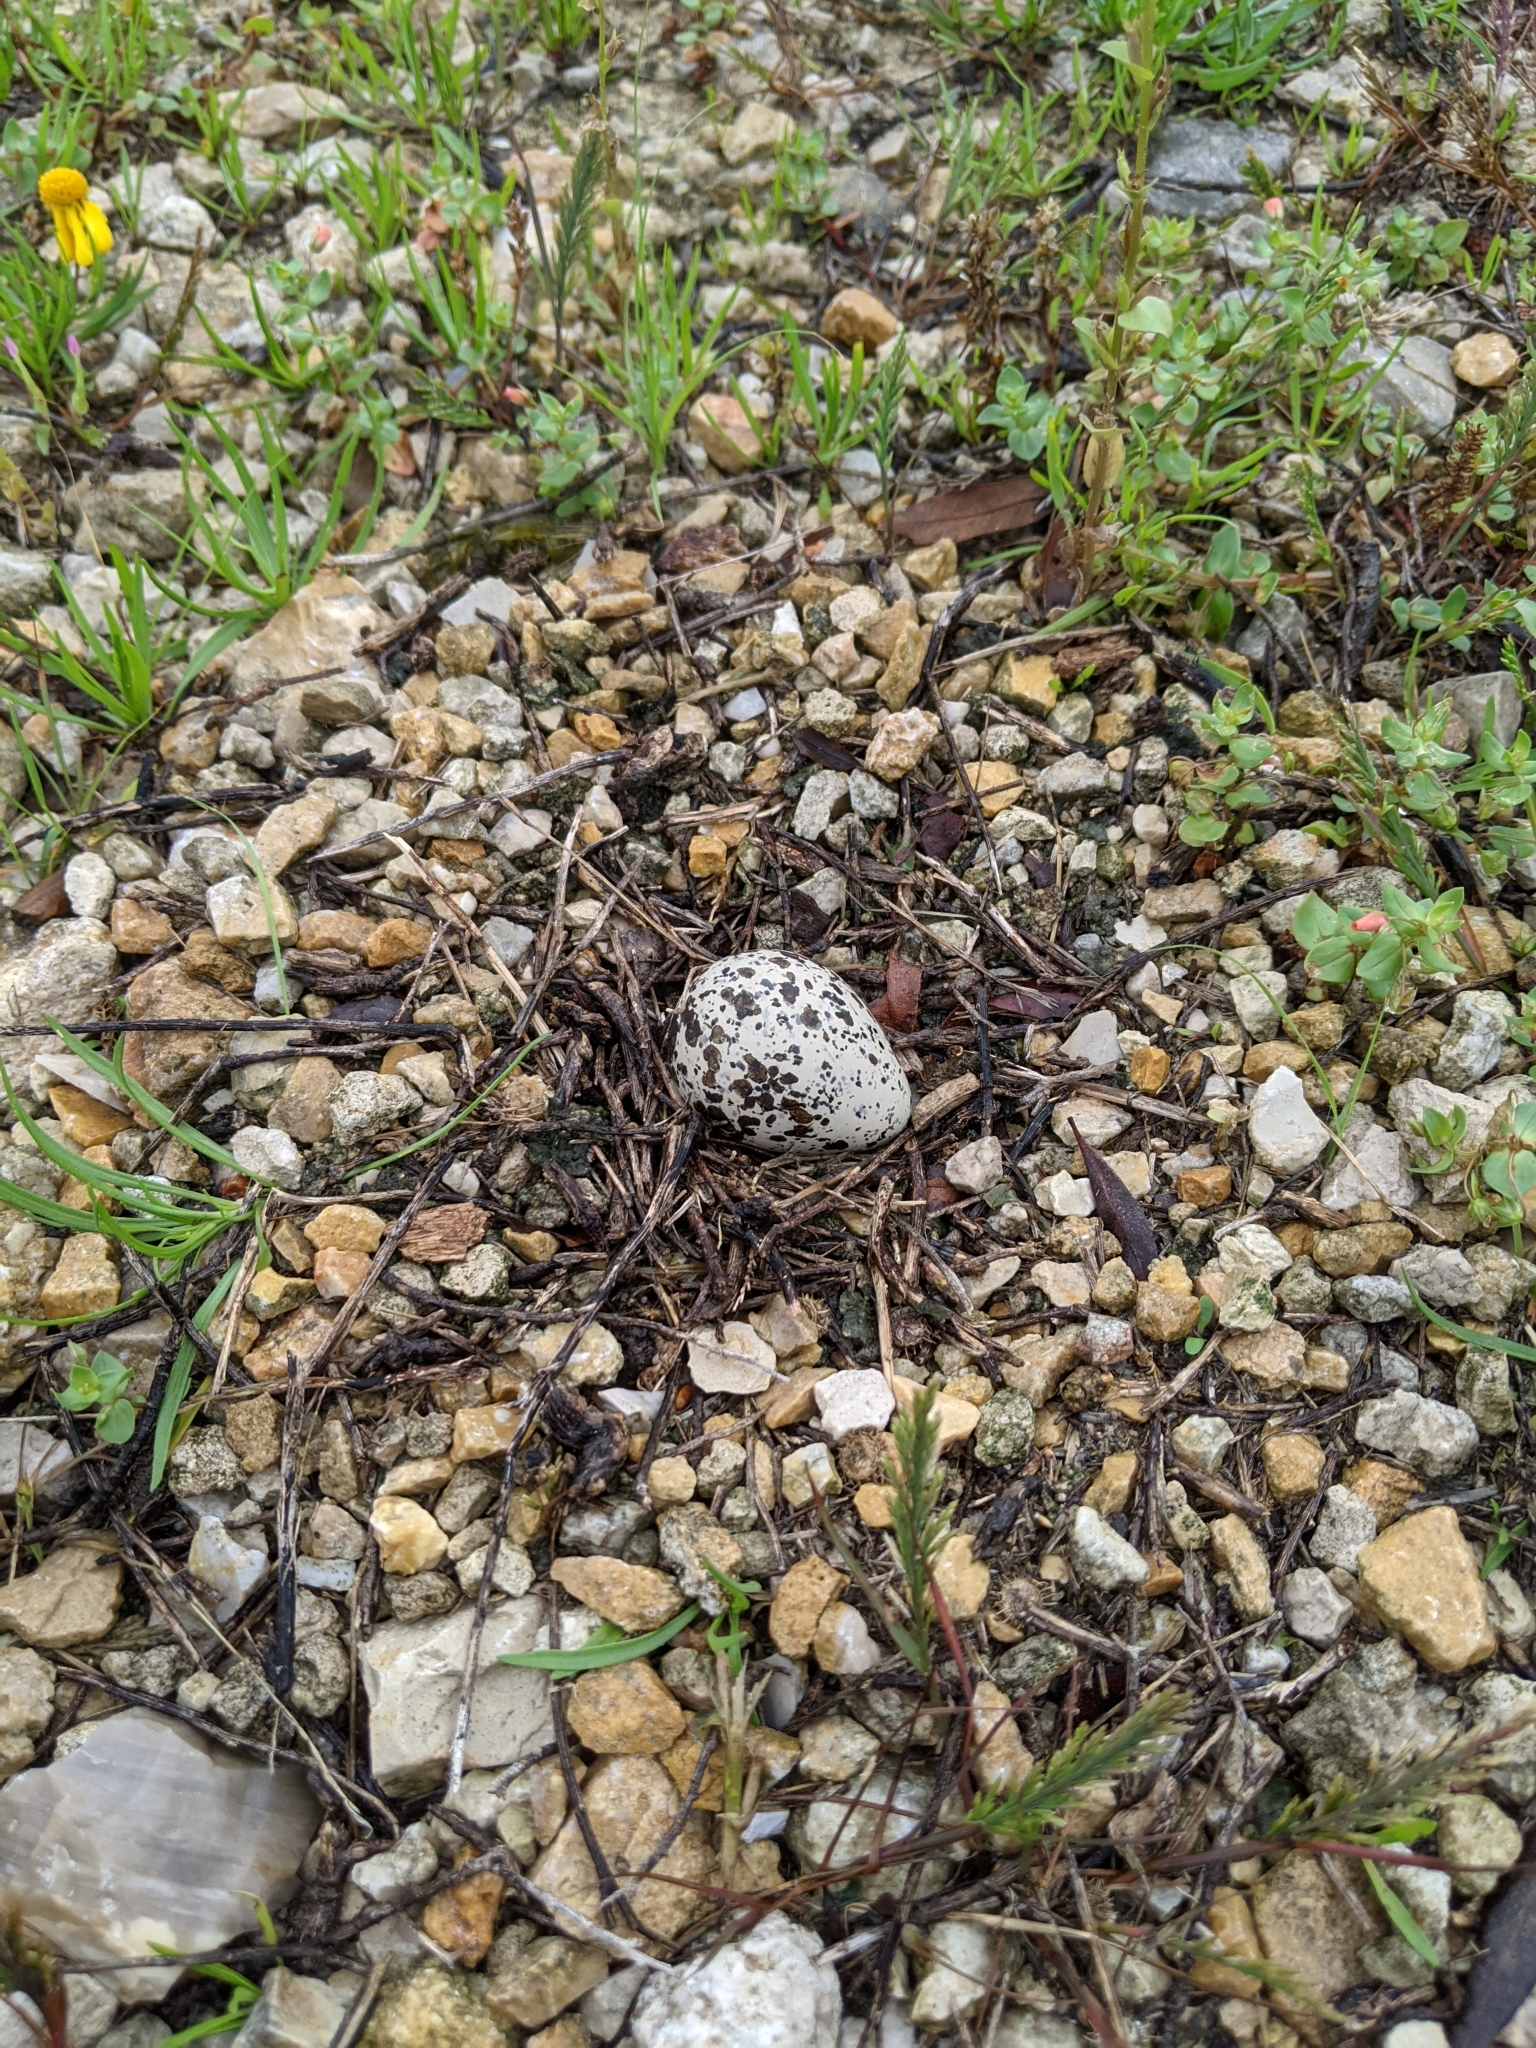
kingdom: Animalia
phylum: Chordata
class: Aves
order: Charadriiformes
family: Charadriidae
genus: Charadrius
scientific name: Charadrius vociferus
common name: Killdeer
